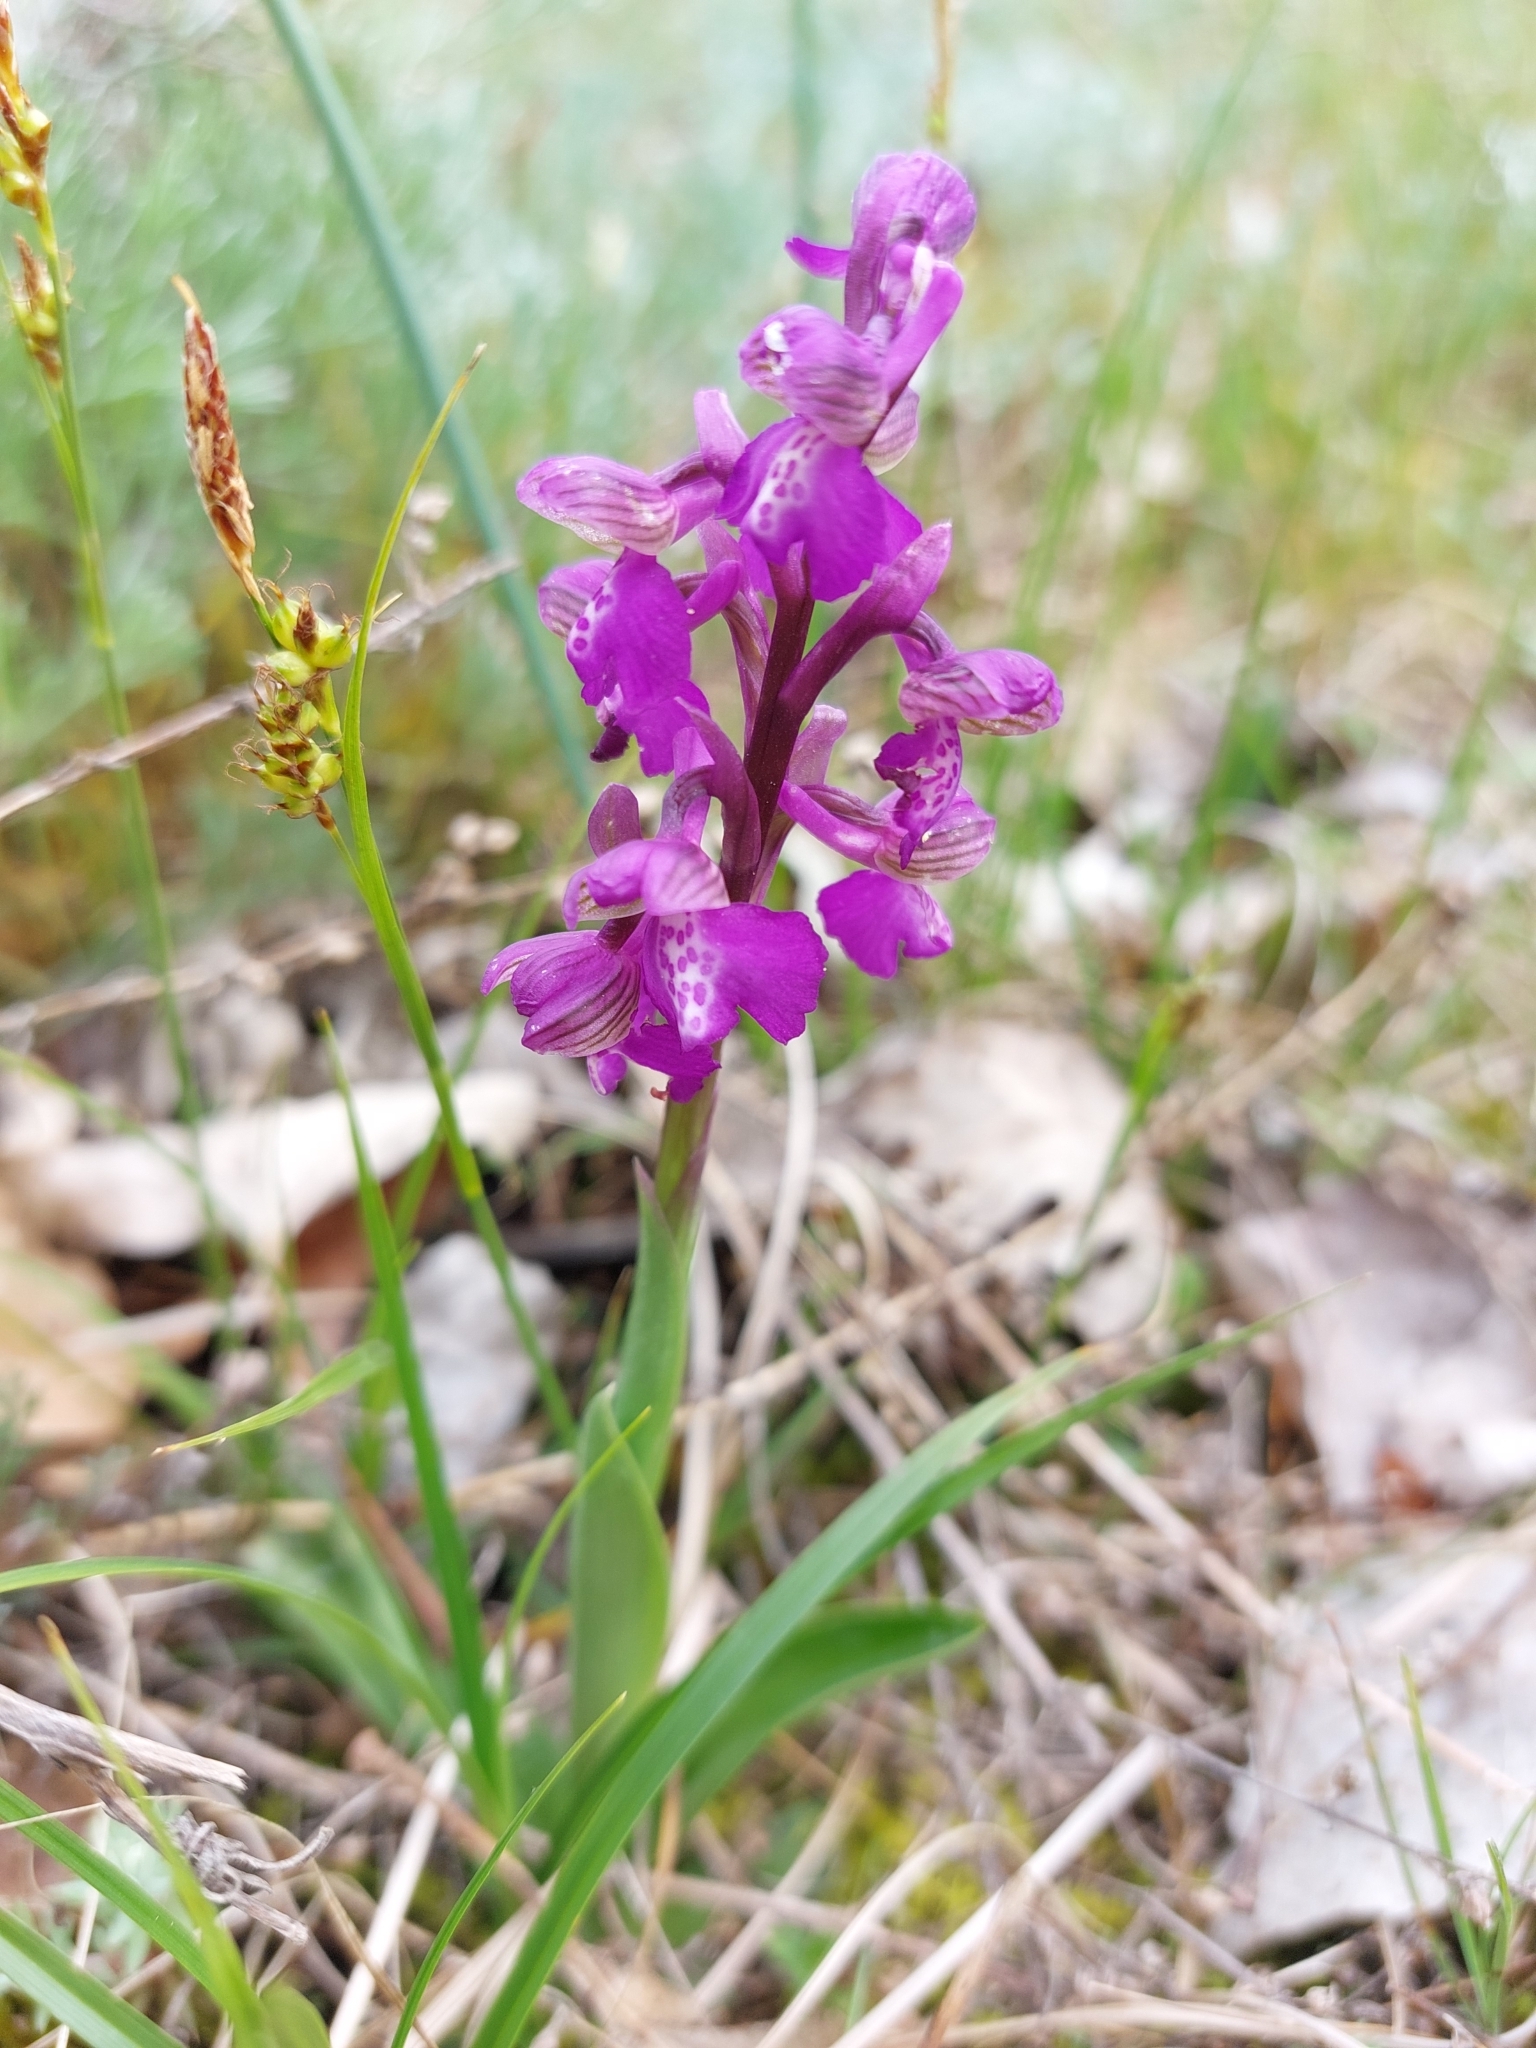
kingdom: Plantae
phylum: Tracheophyta
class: Liliopsida
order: Asparagales
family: Orchidaceae
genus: Anacamptis
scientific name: Anacamptis morio
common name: Green-winged orchid
